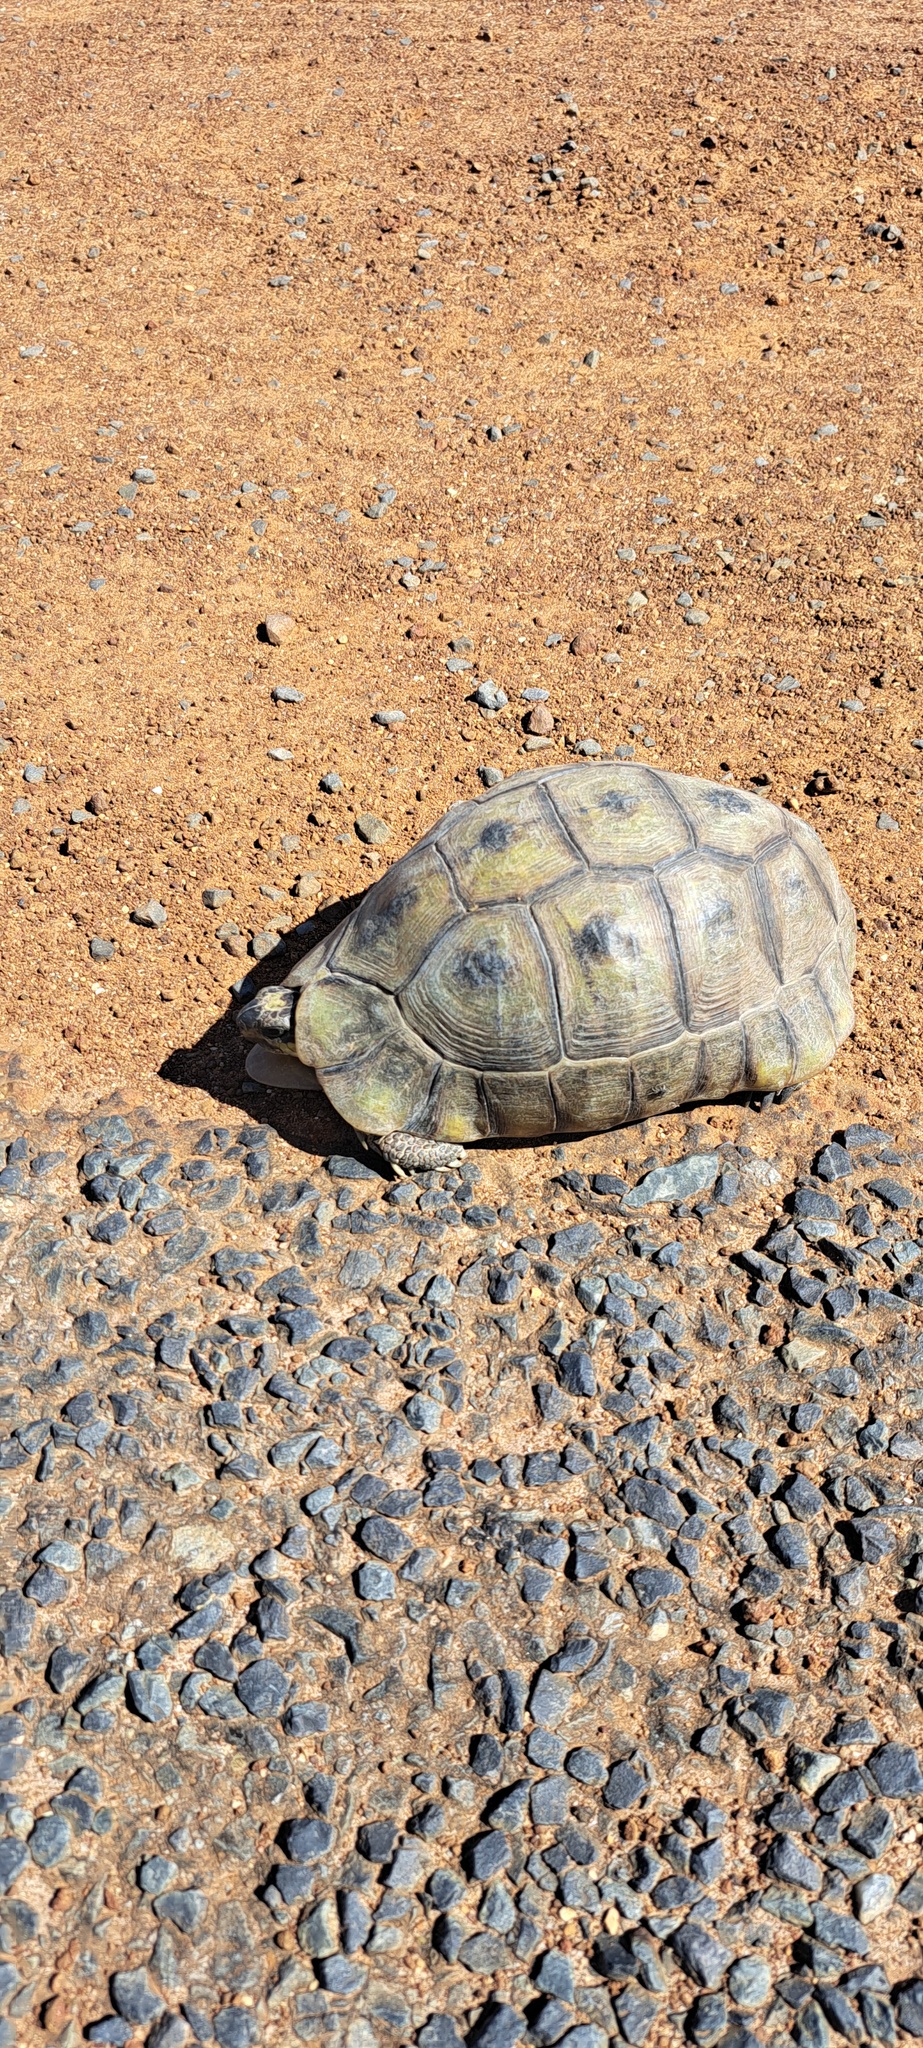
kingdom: Animalia
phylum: Chordata
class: Testudines
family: Testudinidae
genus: Chersina
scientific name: Chersina angulata
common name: South african bowsprit tortoise
